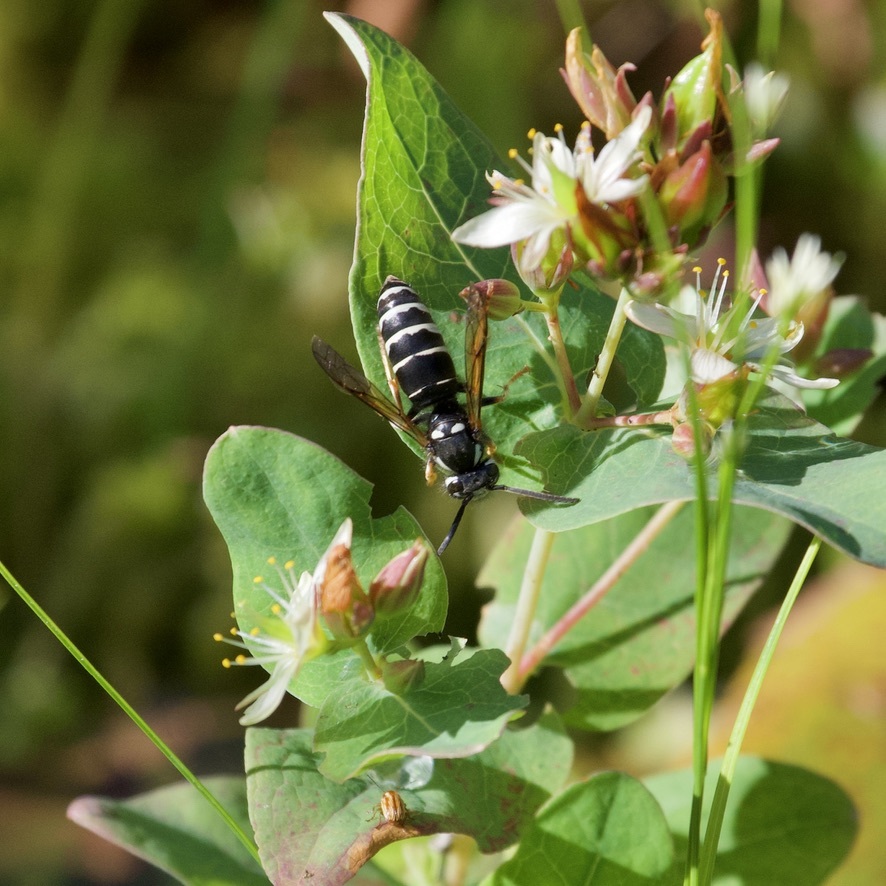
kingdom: Animalia
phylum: Arthropoda
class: Insecta
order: Hymenoptera
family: Vespidae
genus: Vespula
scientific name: Vespula consobrina
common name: Blackjacket
